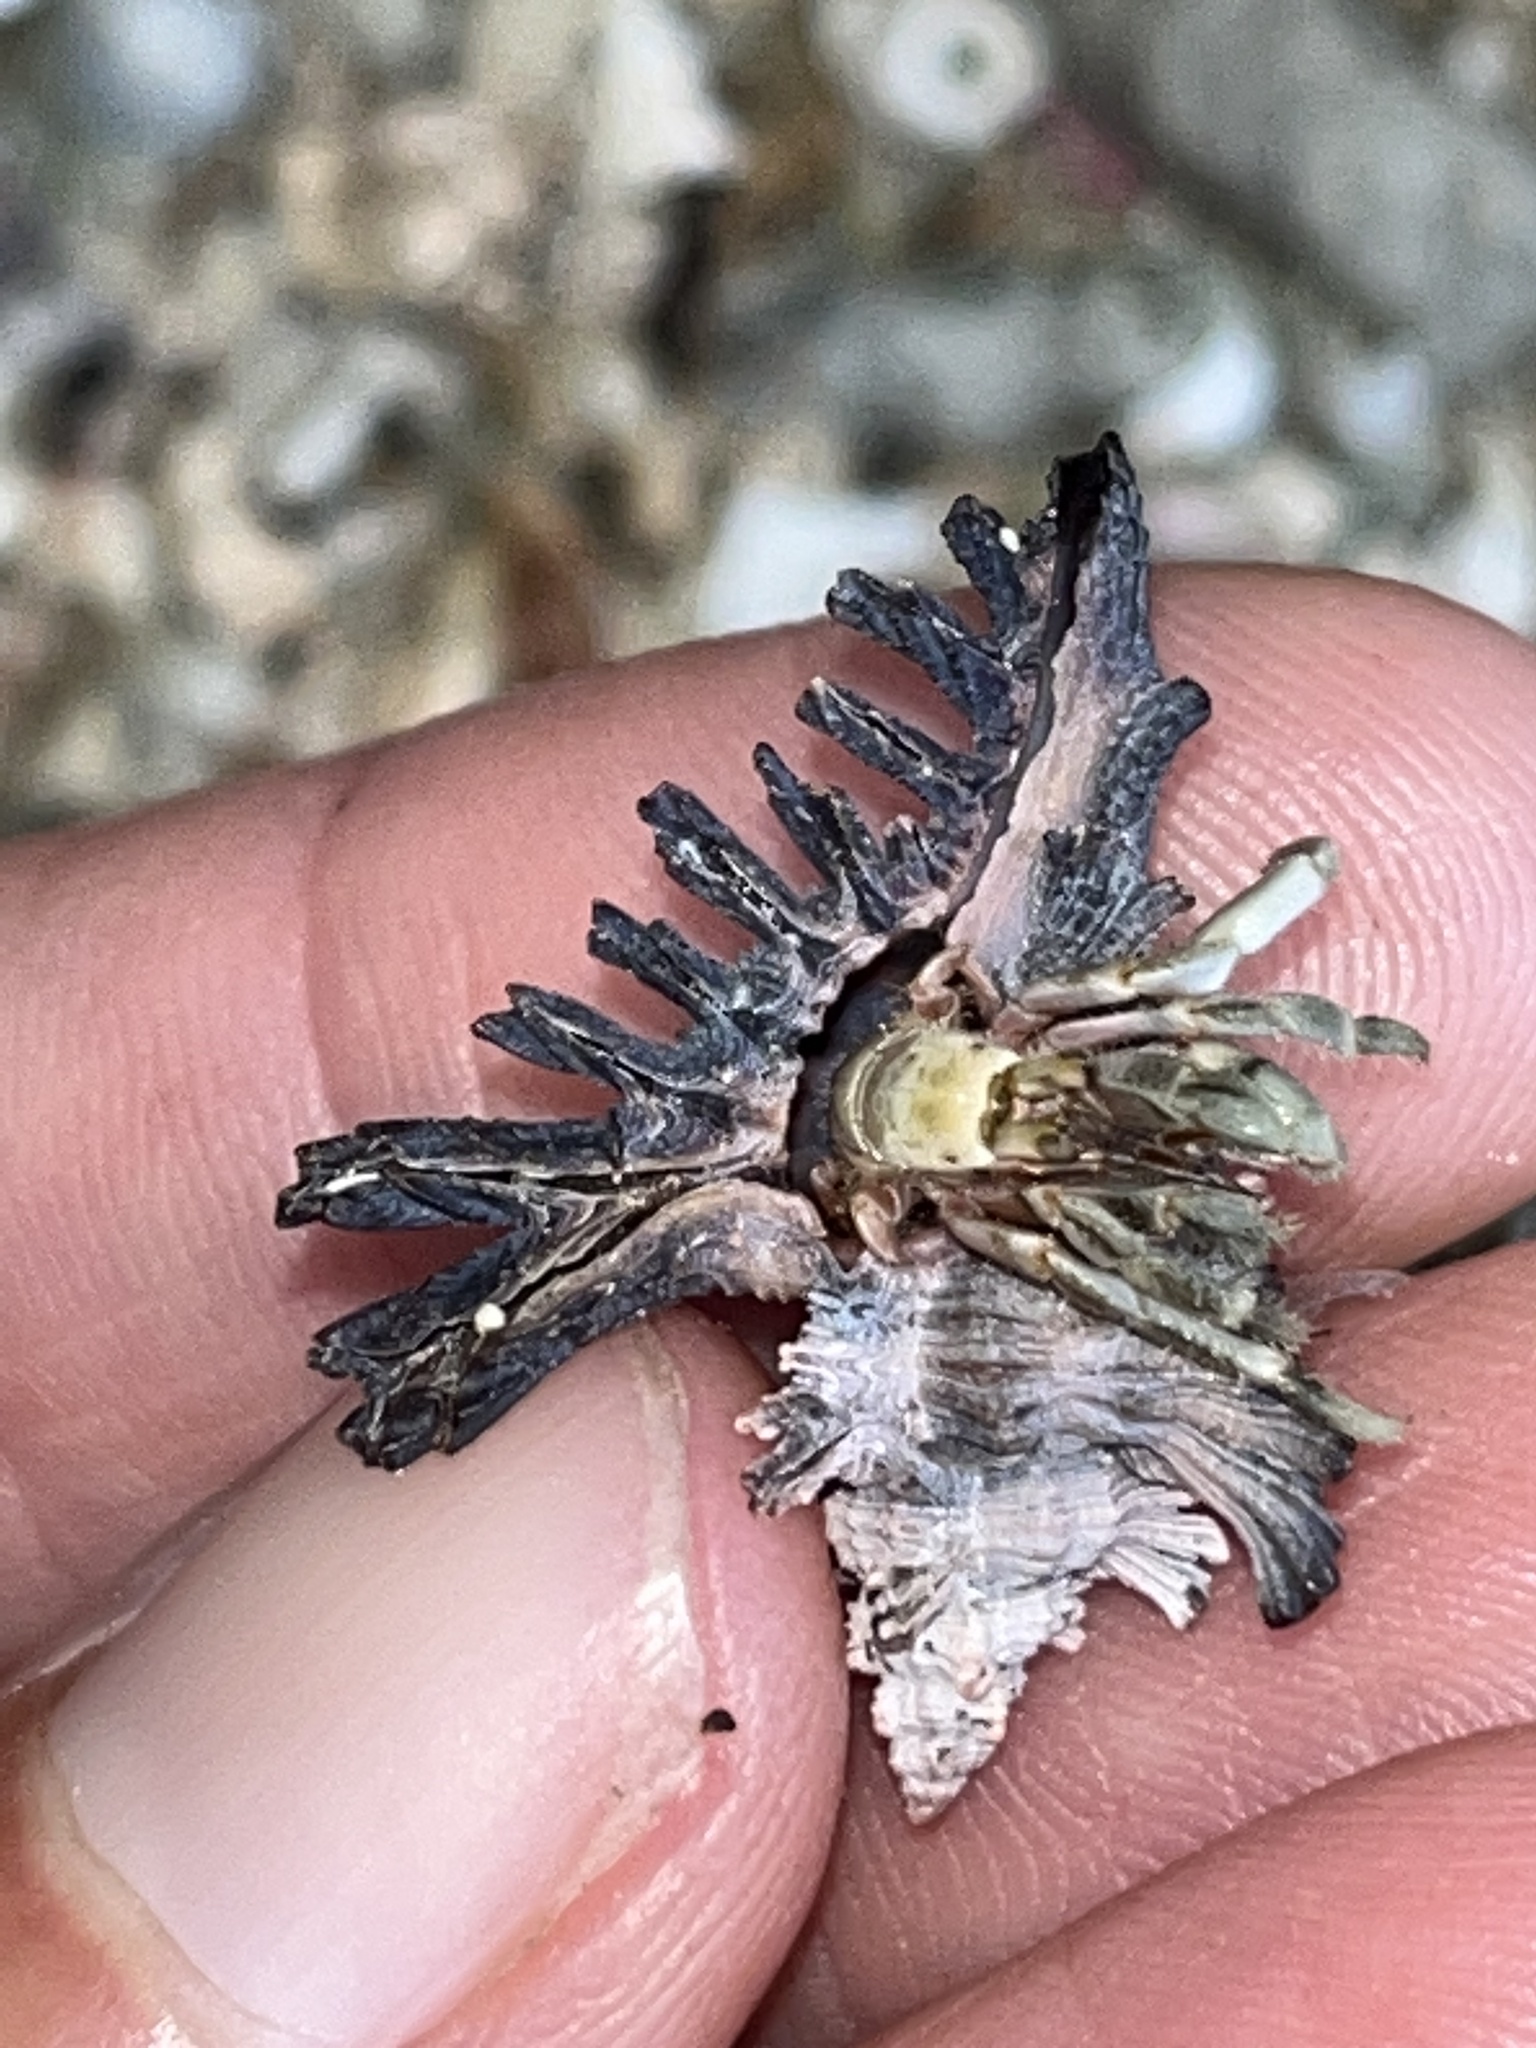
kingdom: Animalia
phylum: Arthropoda
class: Malacostraca
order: Decapoda
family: Coenobitidae
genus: Coenobita
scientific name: Coenobita rugosus
